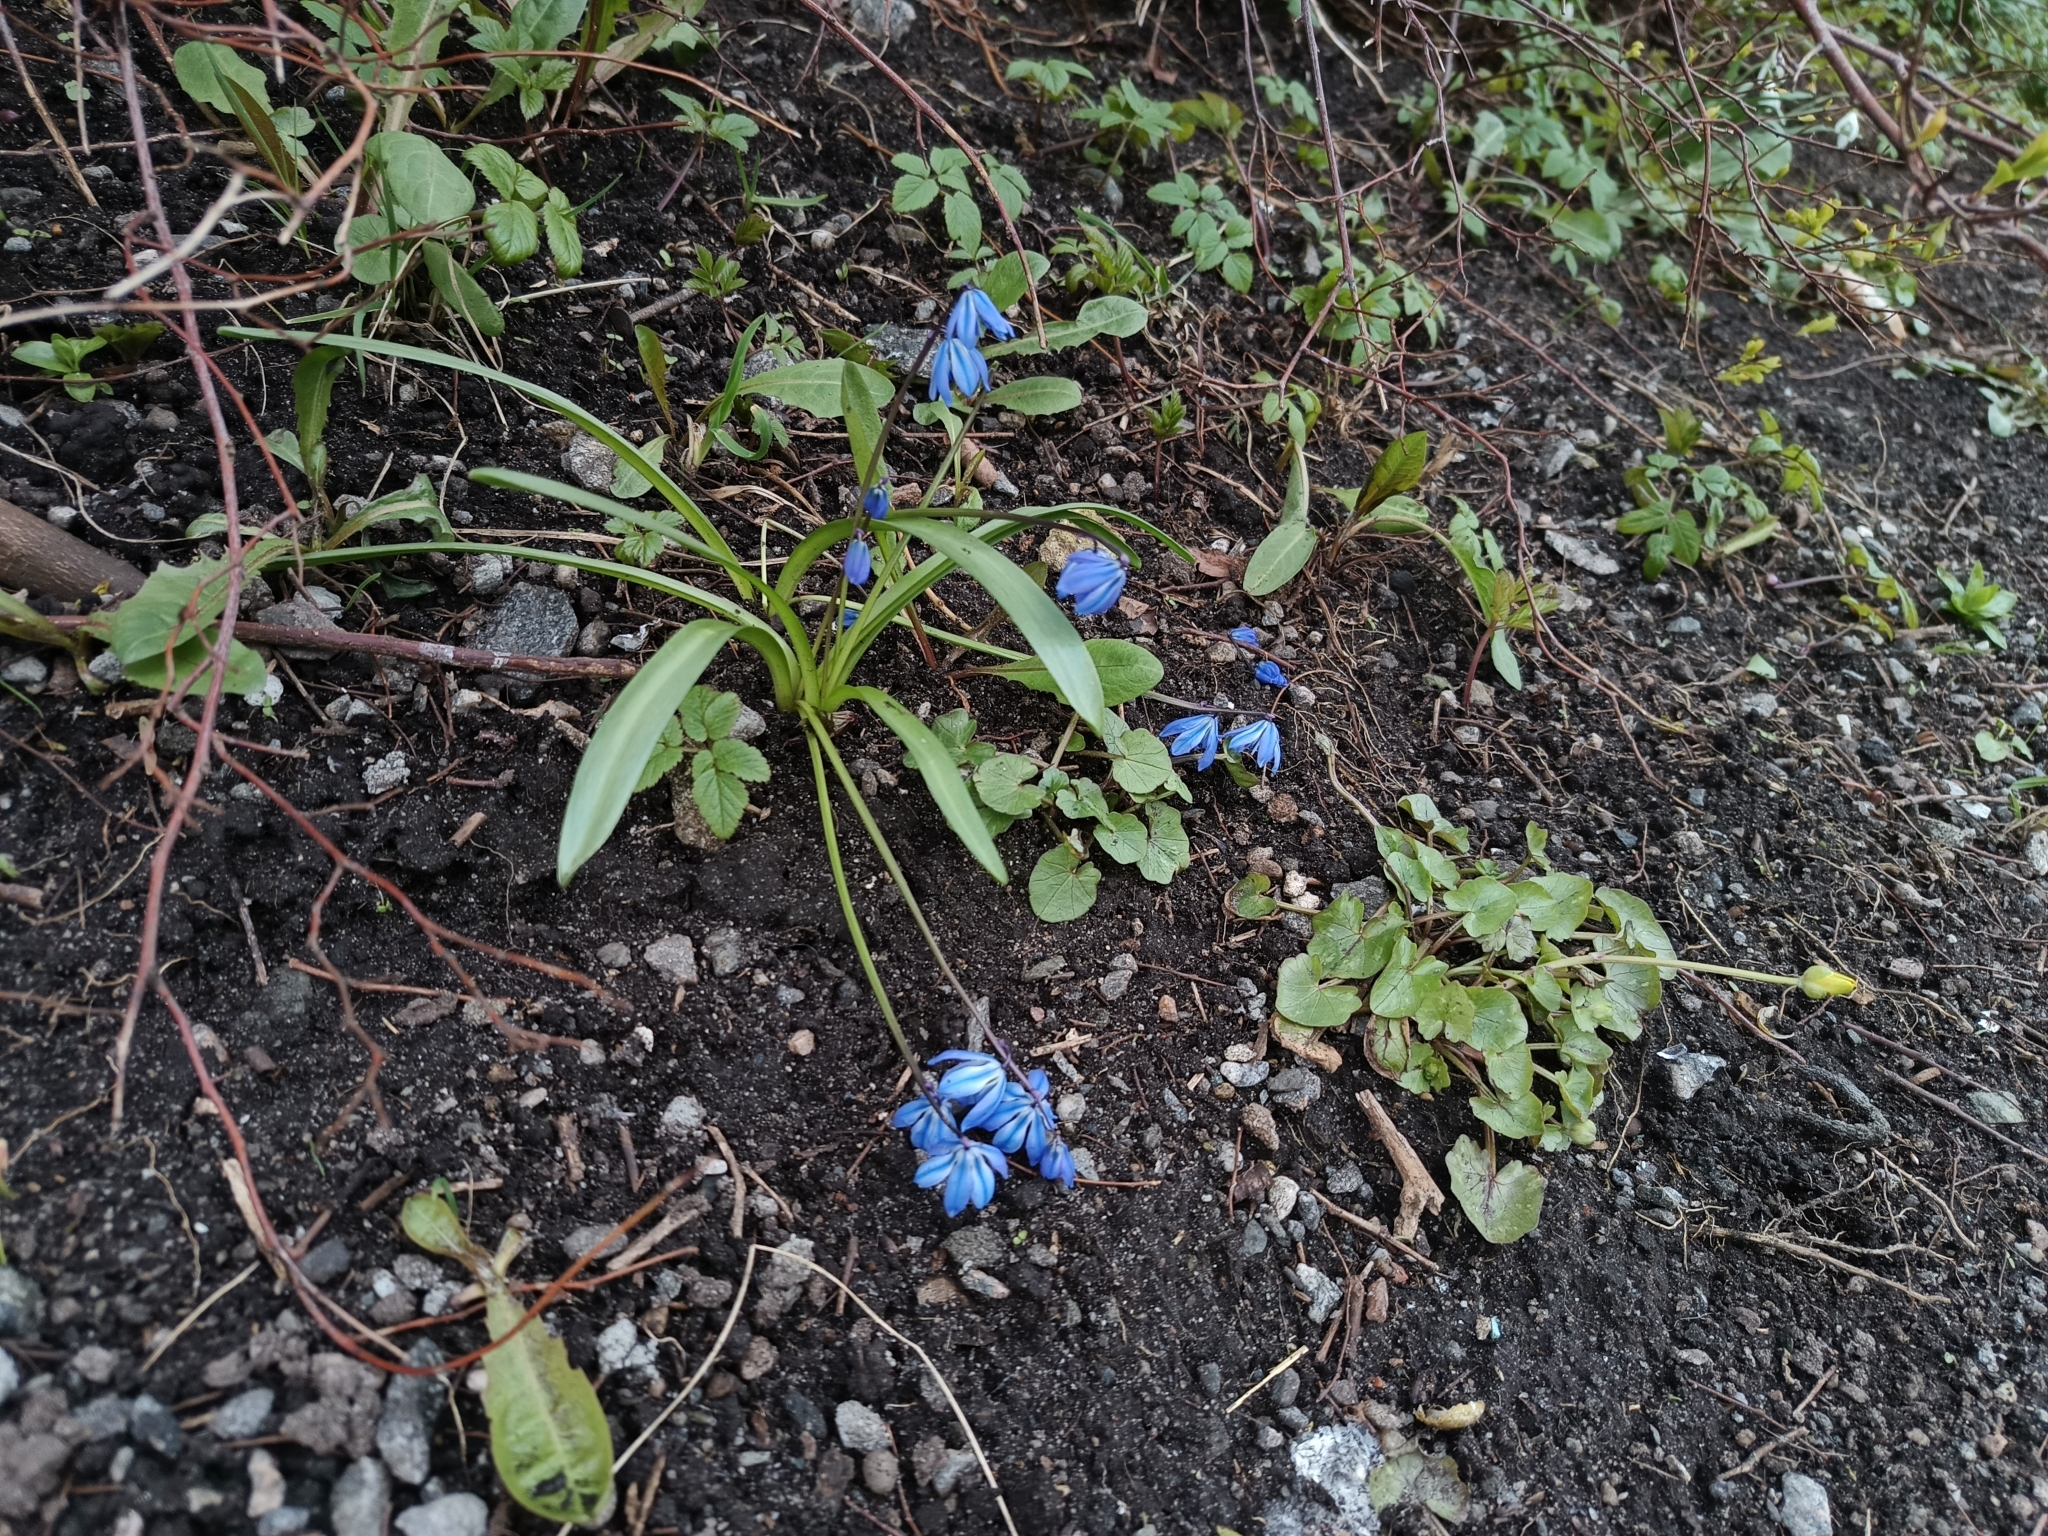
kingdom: Plantae
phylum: Tracheophyta
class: Liliopsida
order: Asparagales
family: Asparagaceae
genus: Scilla
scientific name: Scilla siberica
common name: Siberian squill
